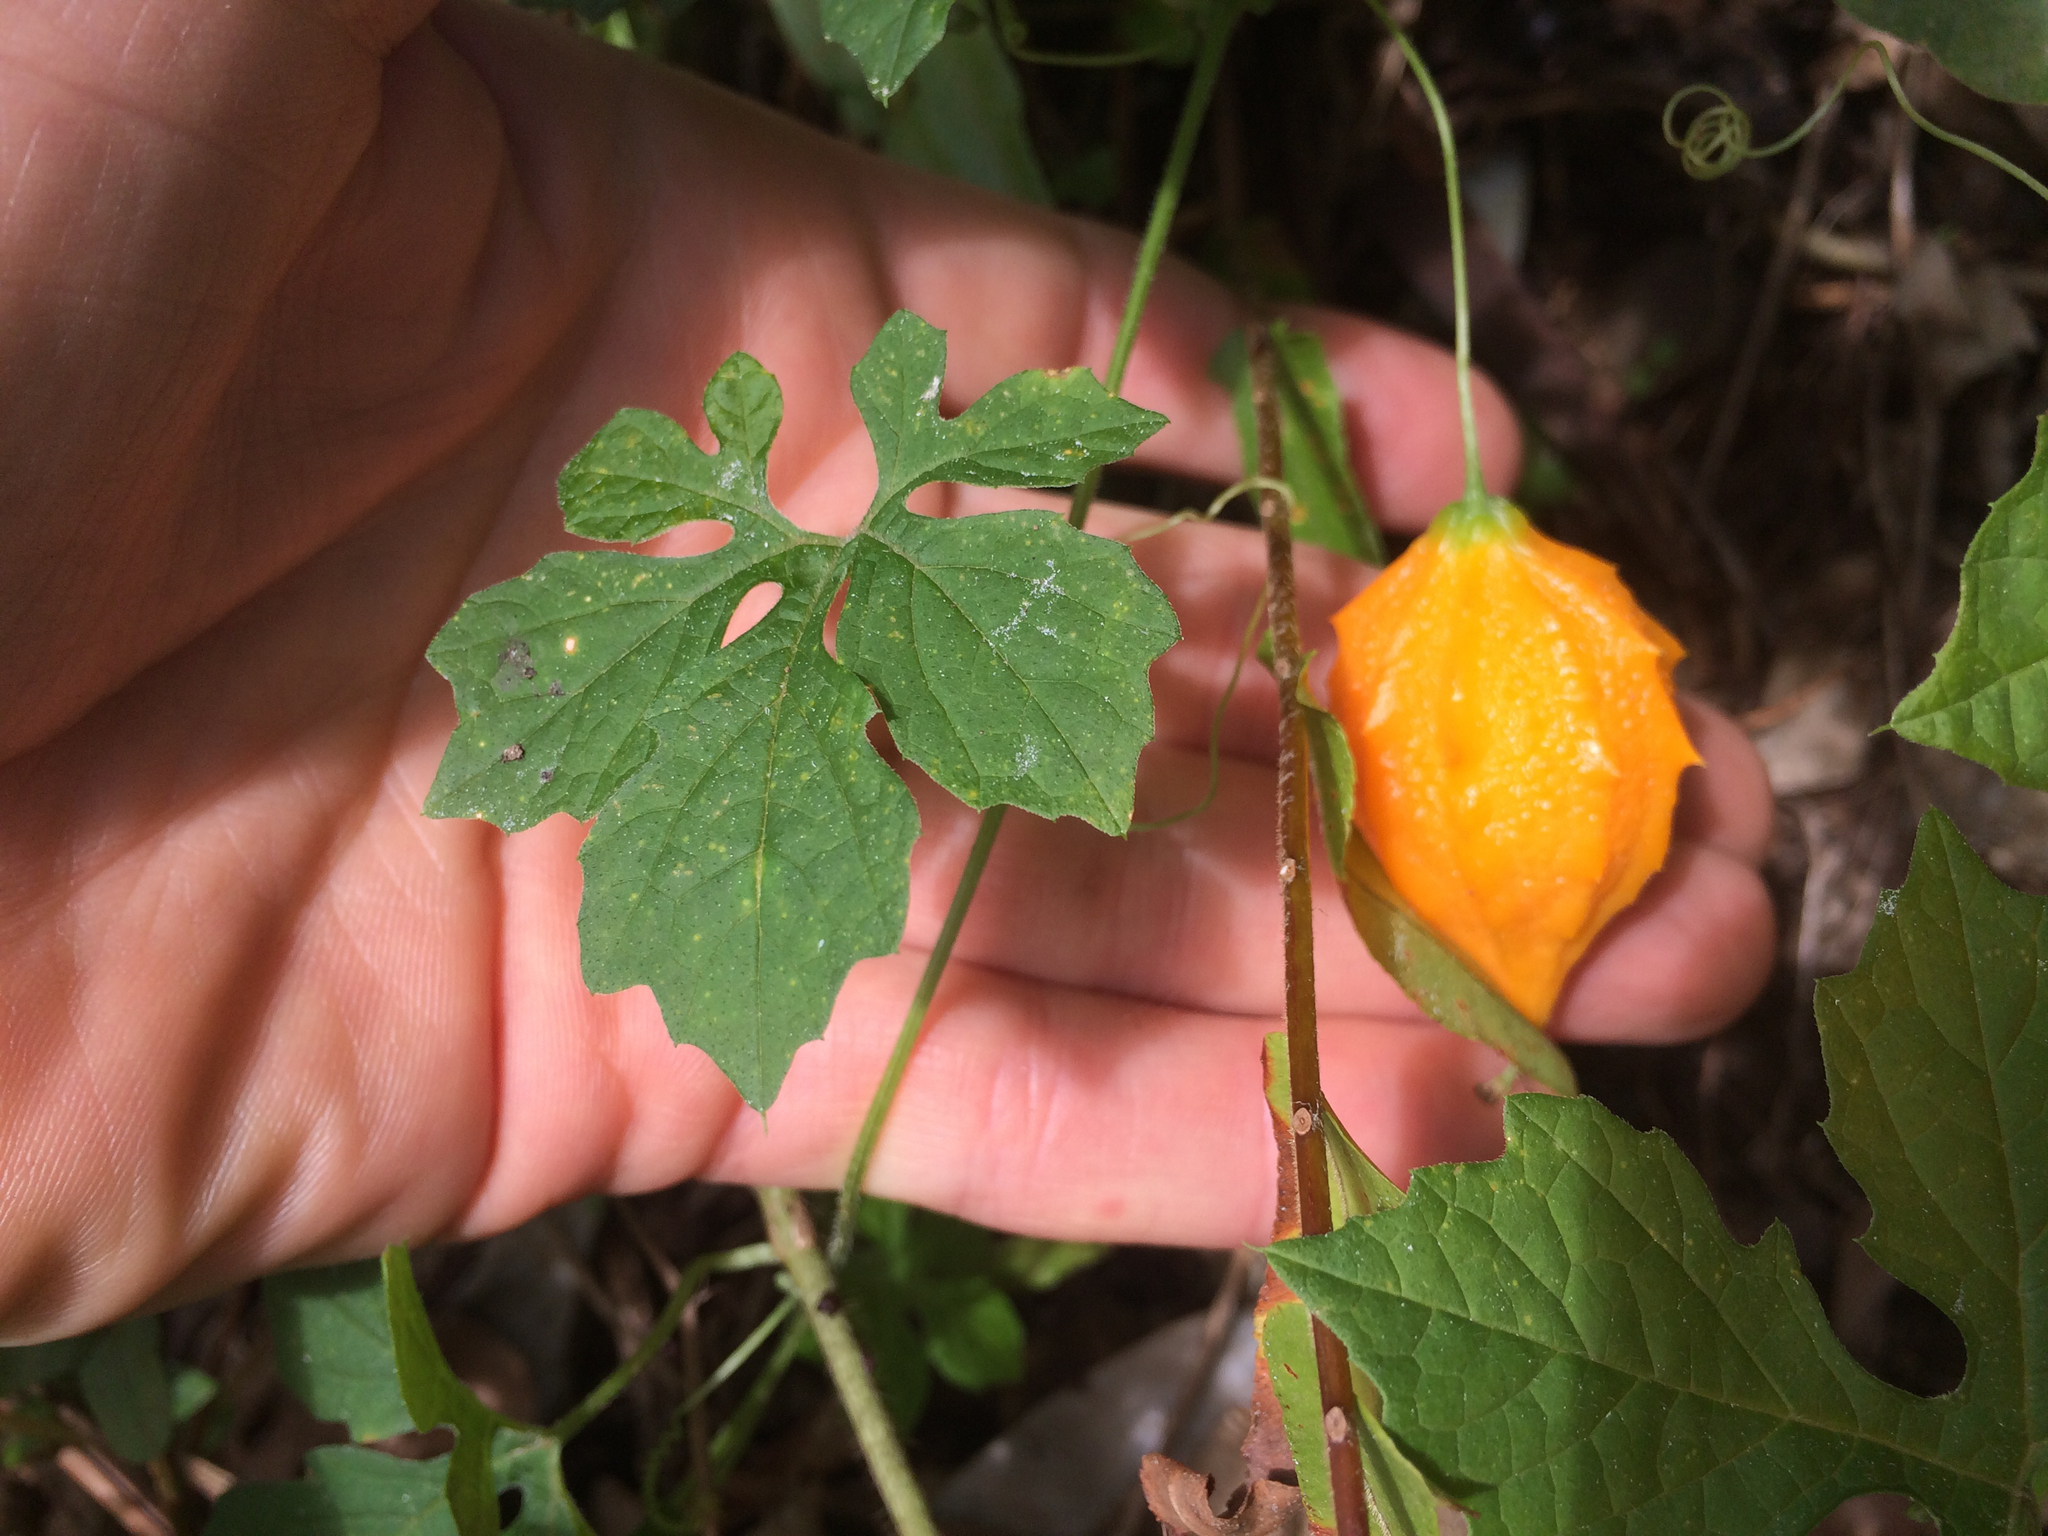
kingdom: Plantae
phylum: Tracheophyta
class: Magnoliopsida
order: Cucurbitales
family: Cucurbitaceae
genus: Momordica
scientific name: Momordica charantia
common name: Balsampear
